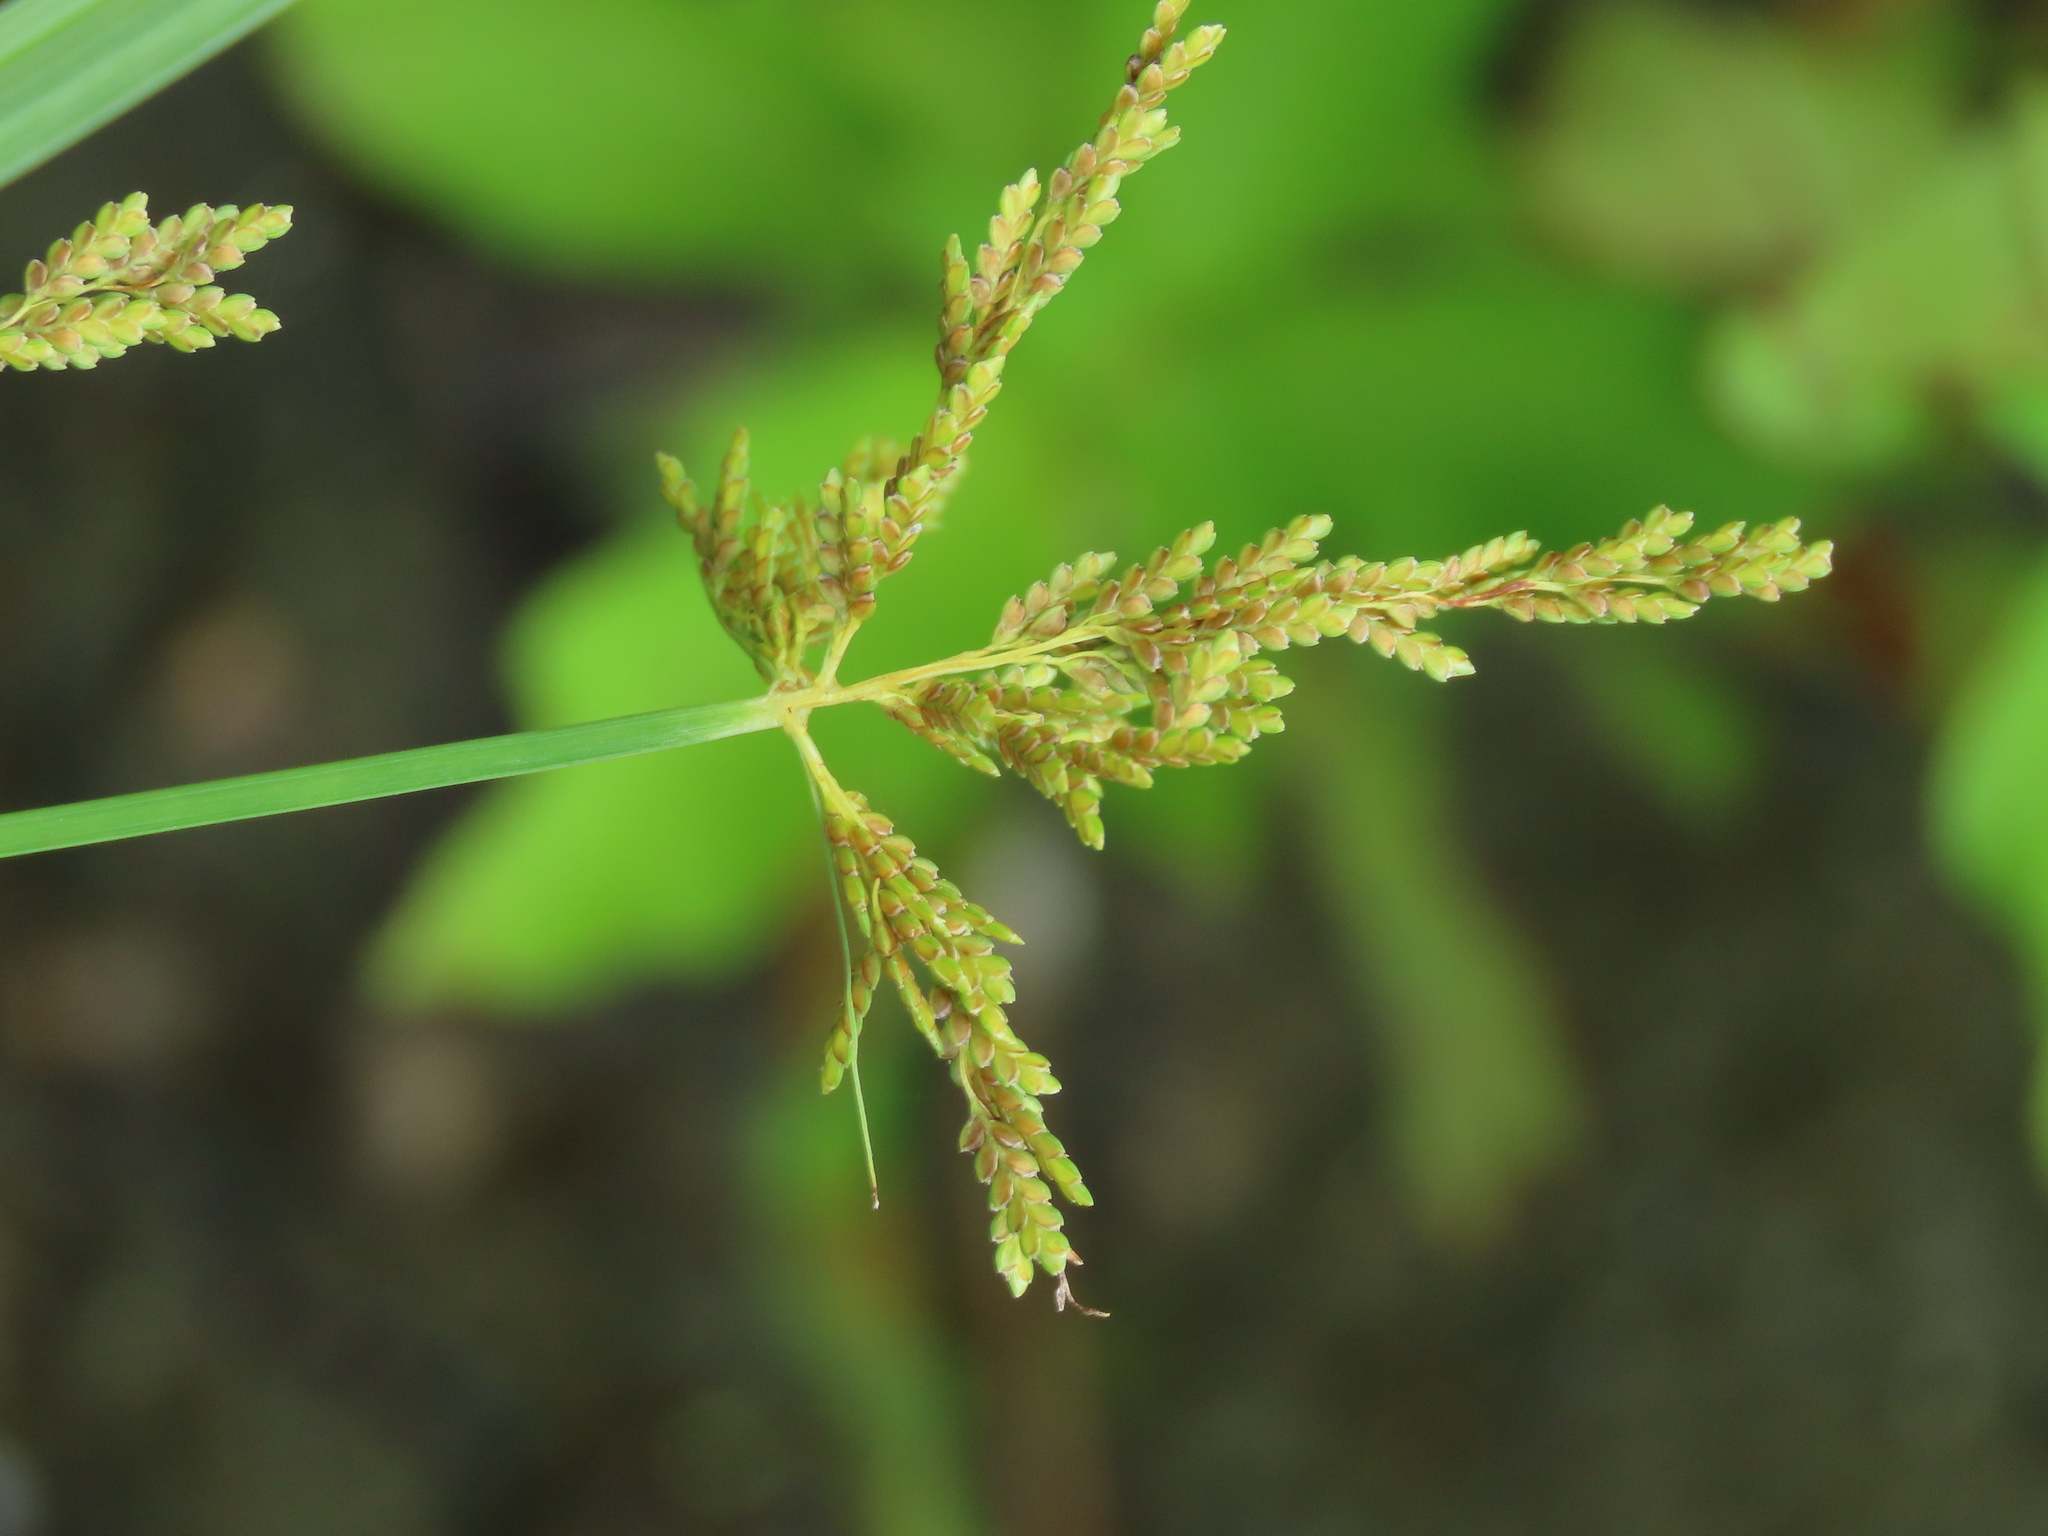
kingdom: Plantae
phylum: Tracheophyta
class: Liliopsida
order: Poales
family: Cyperaceae
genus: Cyperus
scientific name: Cyperus iria
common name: Ricefield flatsedge
